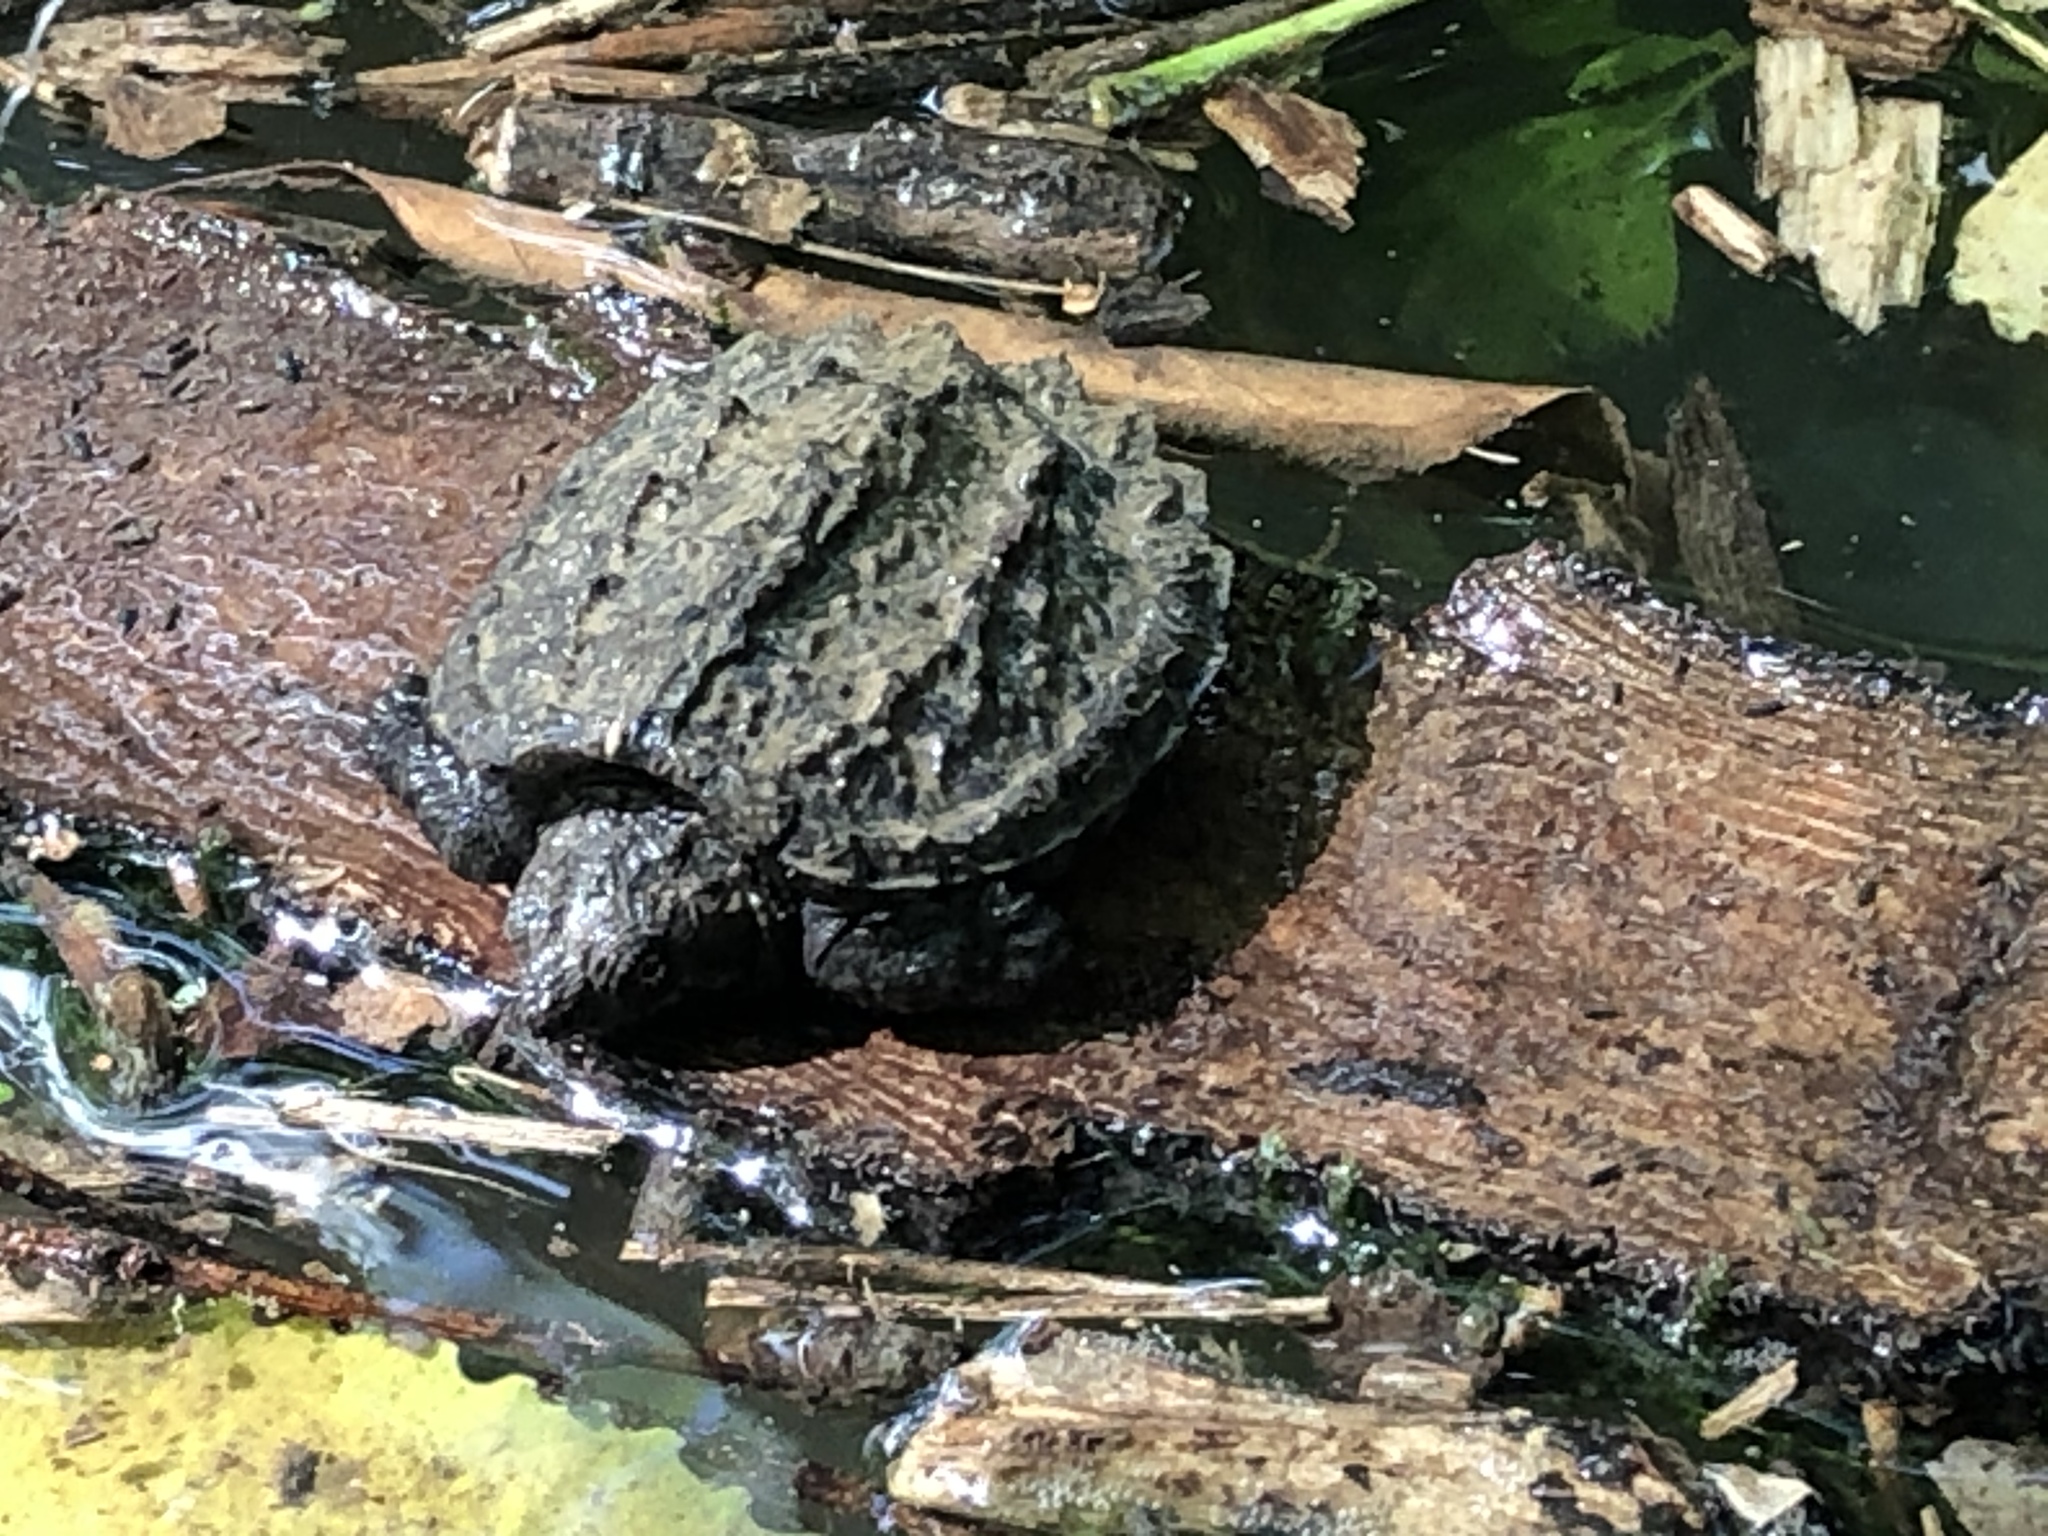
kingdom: Animalia
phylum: Chordata
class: Testudines
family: Chelydridae
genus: Chelydra
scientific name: Chelydra serpentina
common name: Common snapping turtle
